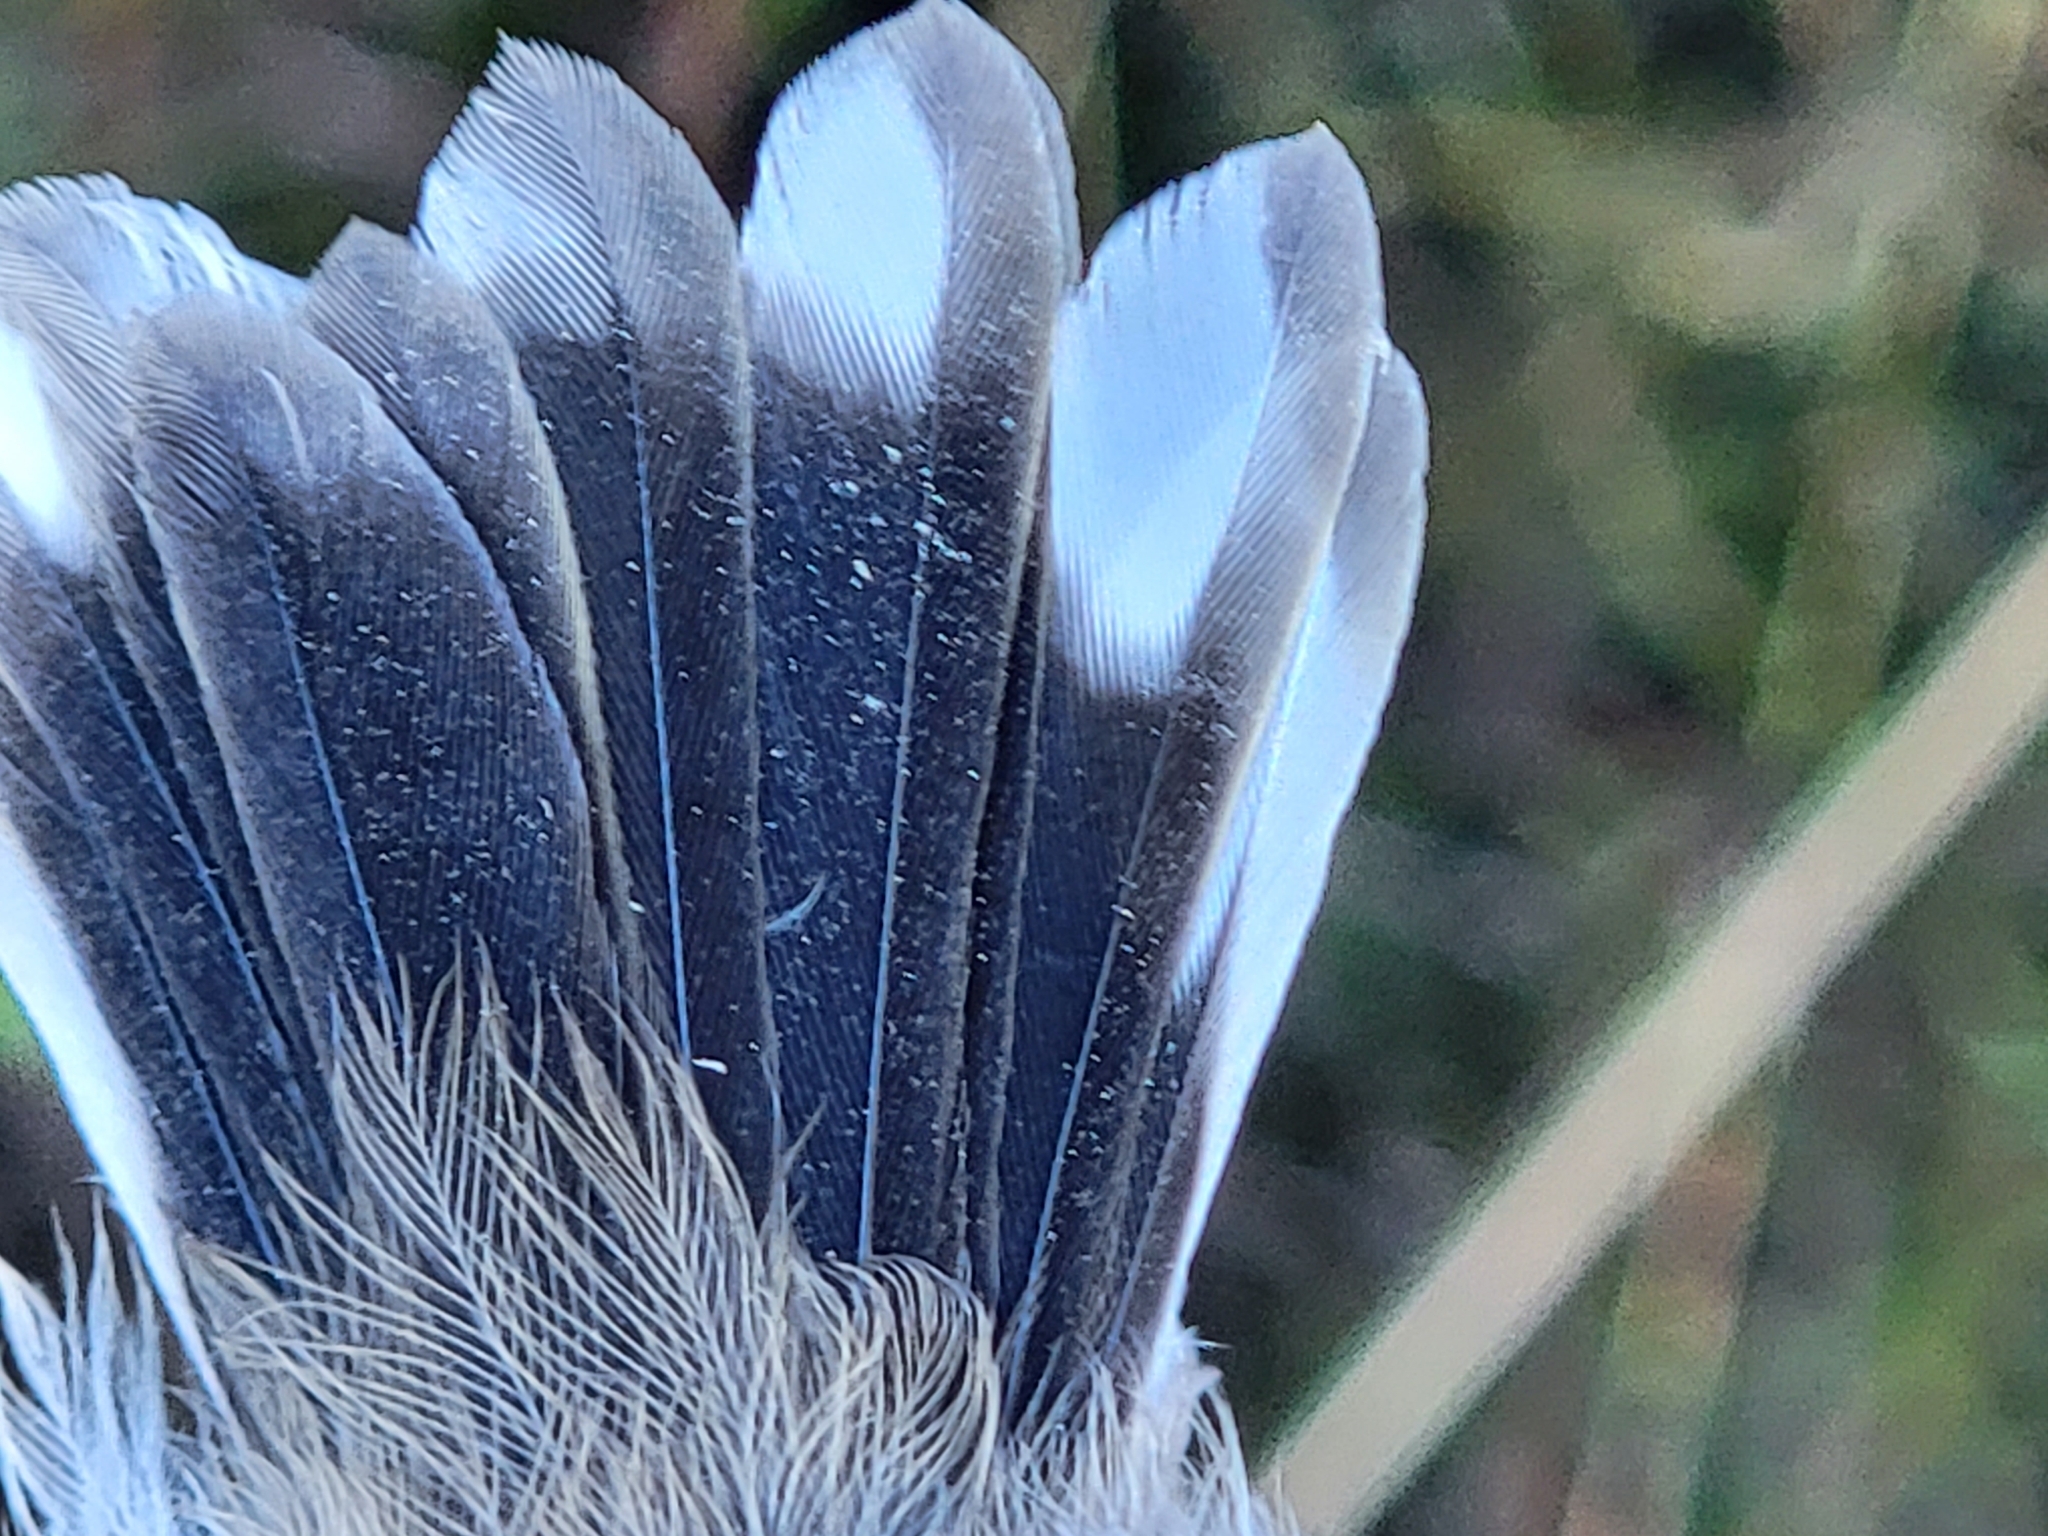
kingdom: Animalia
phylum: Chordata
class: Aves
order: Passeriformes
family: Acanthizidae
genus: Gerygone
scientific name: Gerygone igata
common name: Grey gerygone
